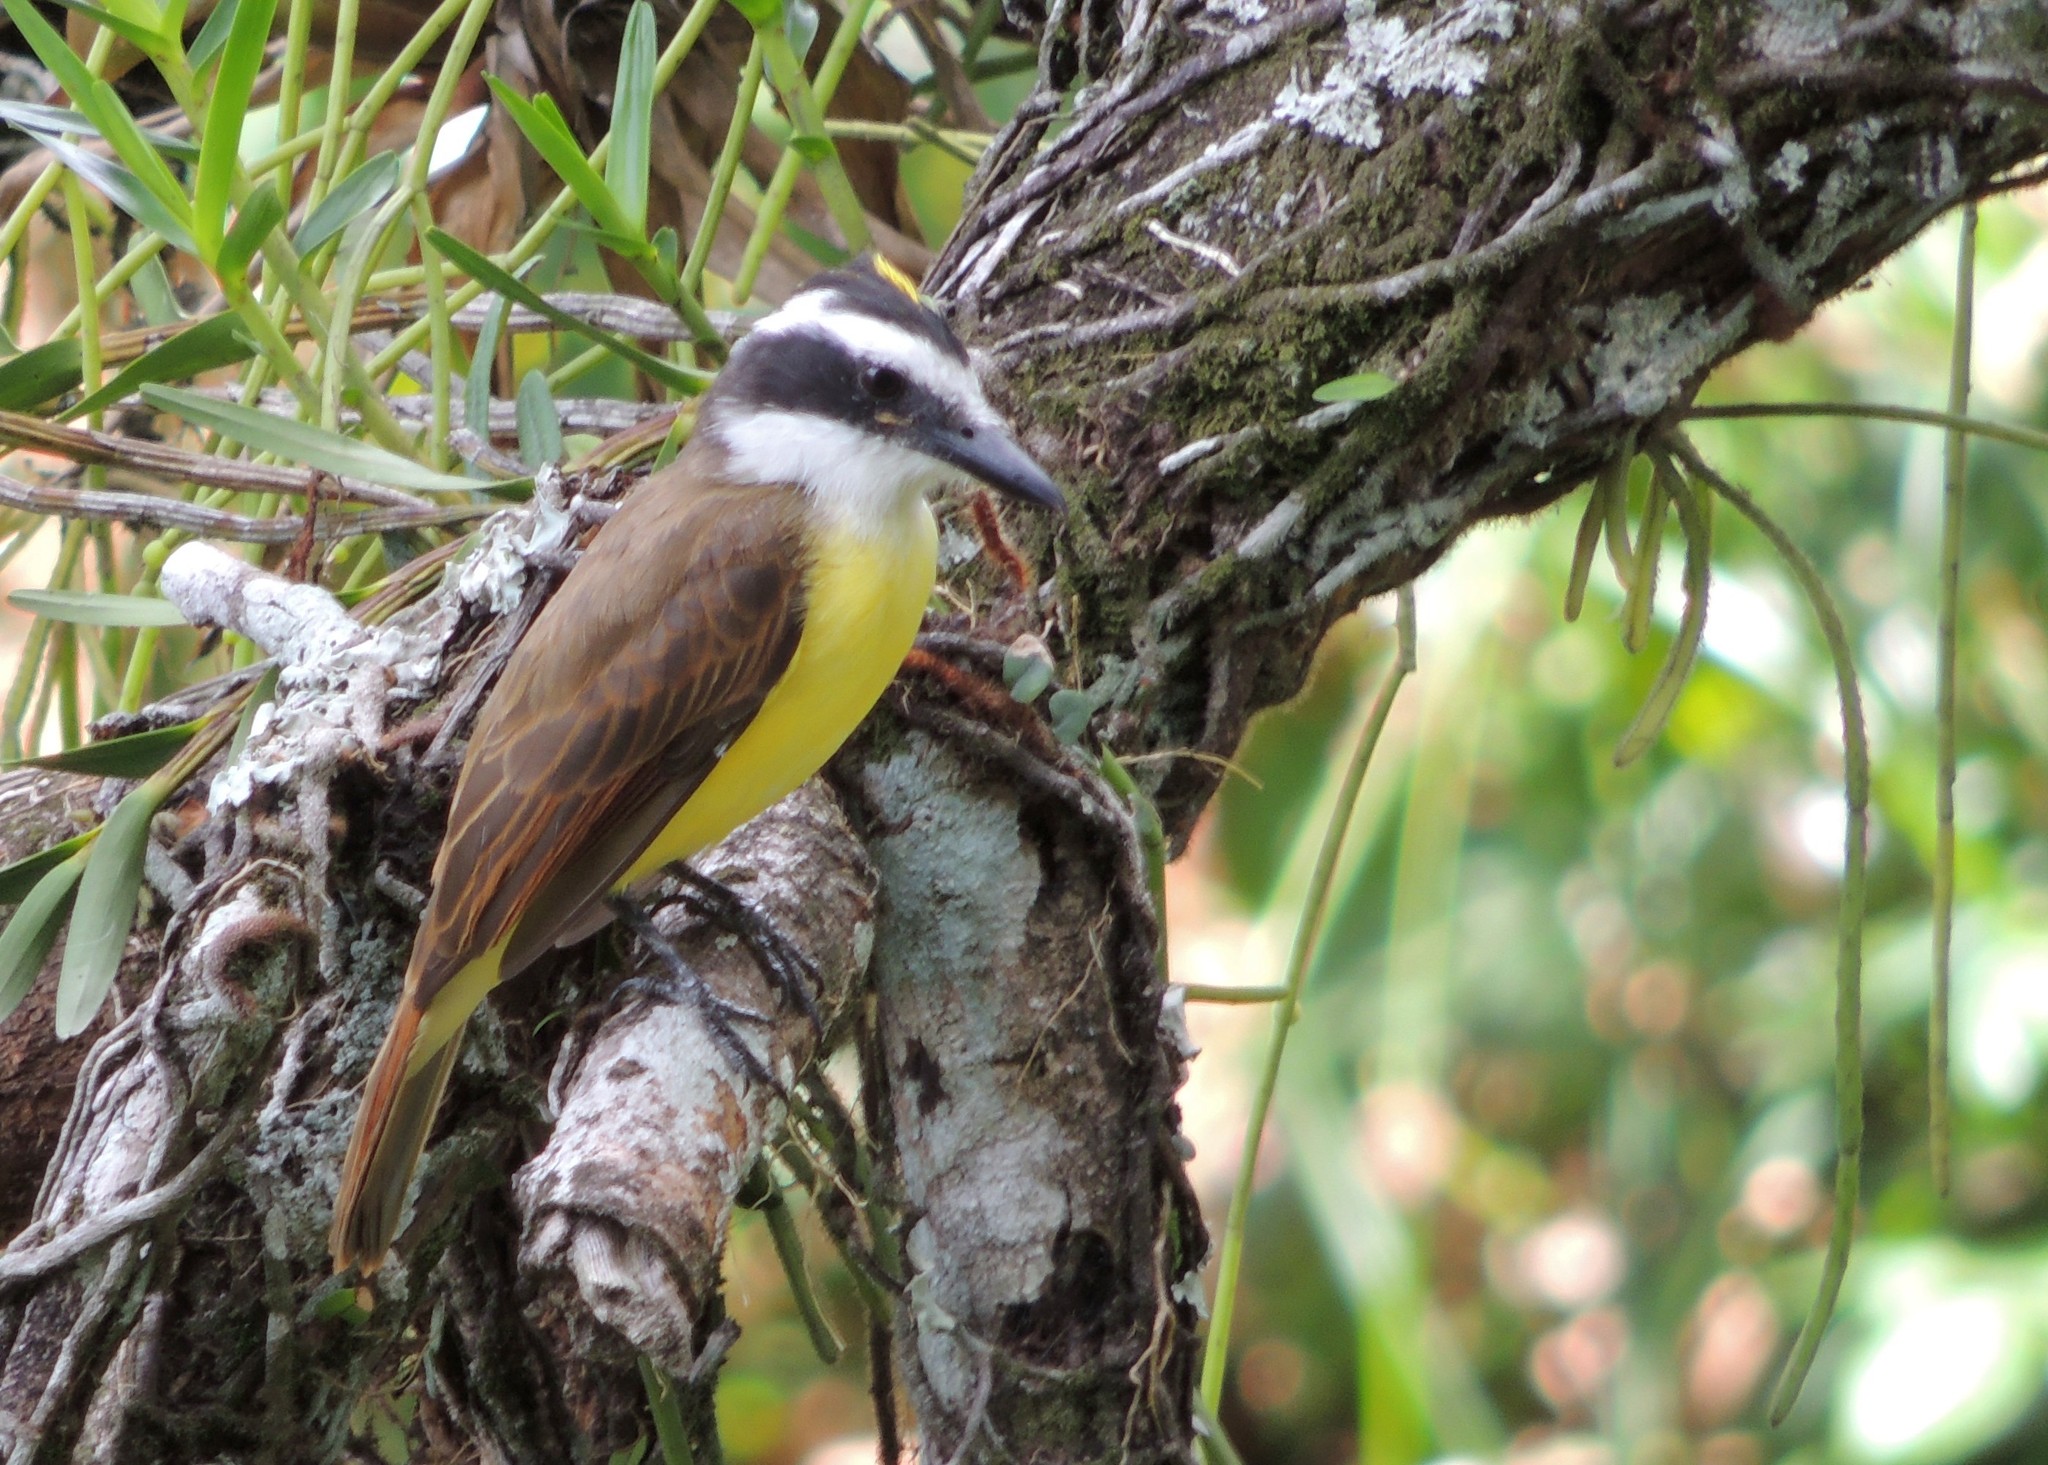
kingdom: Animalia
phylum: Chordata
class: Aves
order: Passeriformes
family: Tyrannidae
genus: Pitangus
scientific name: Pitangus sulphuratus
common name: Great kiskadee
